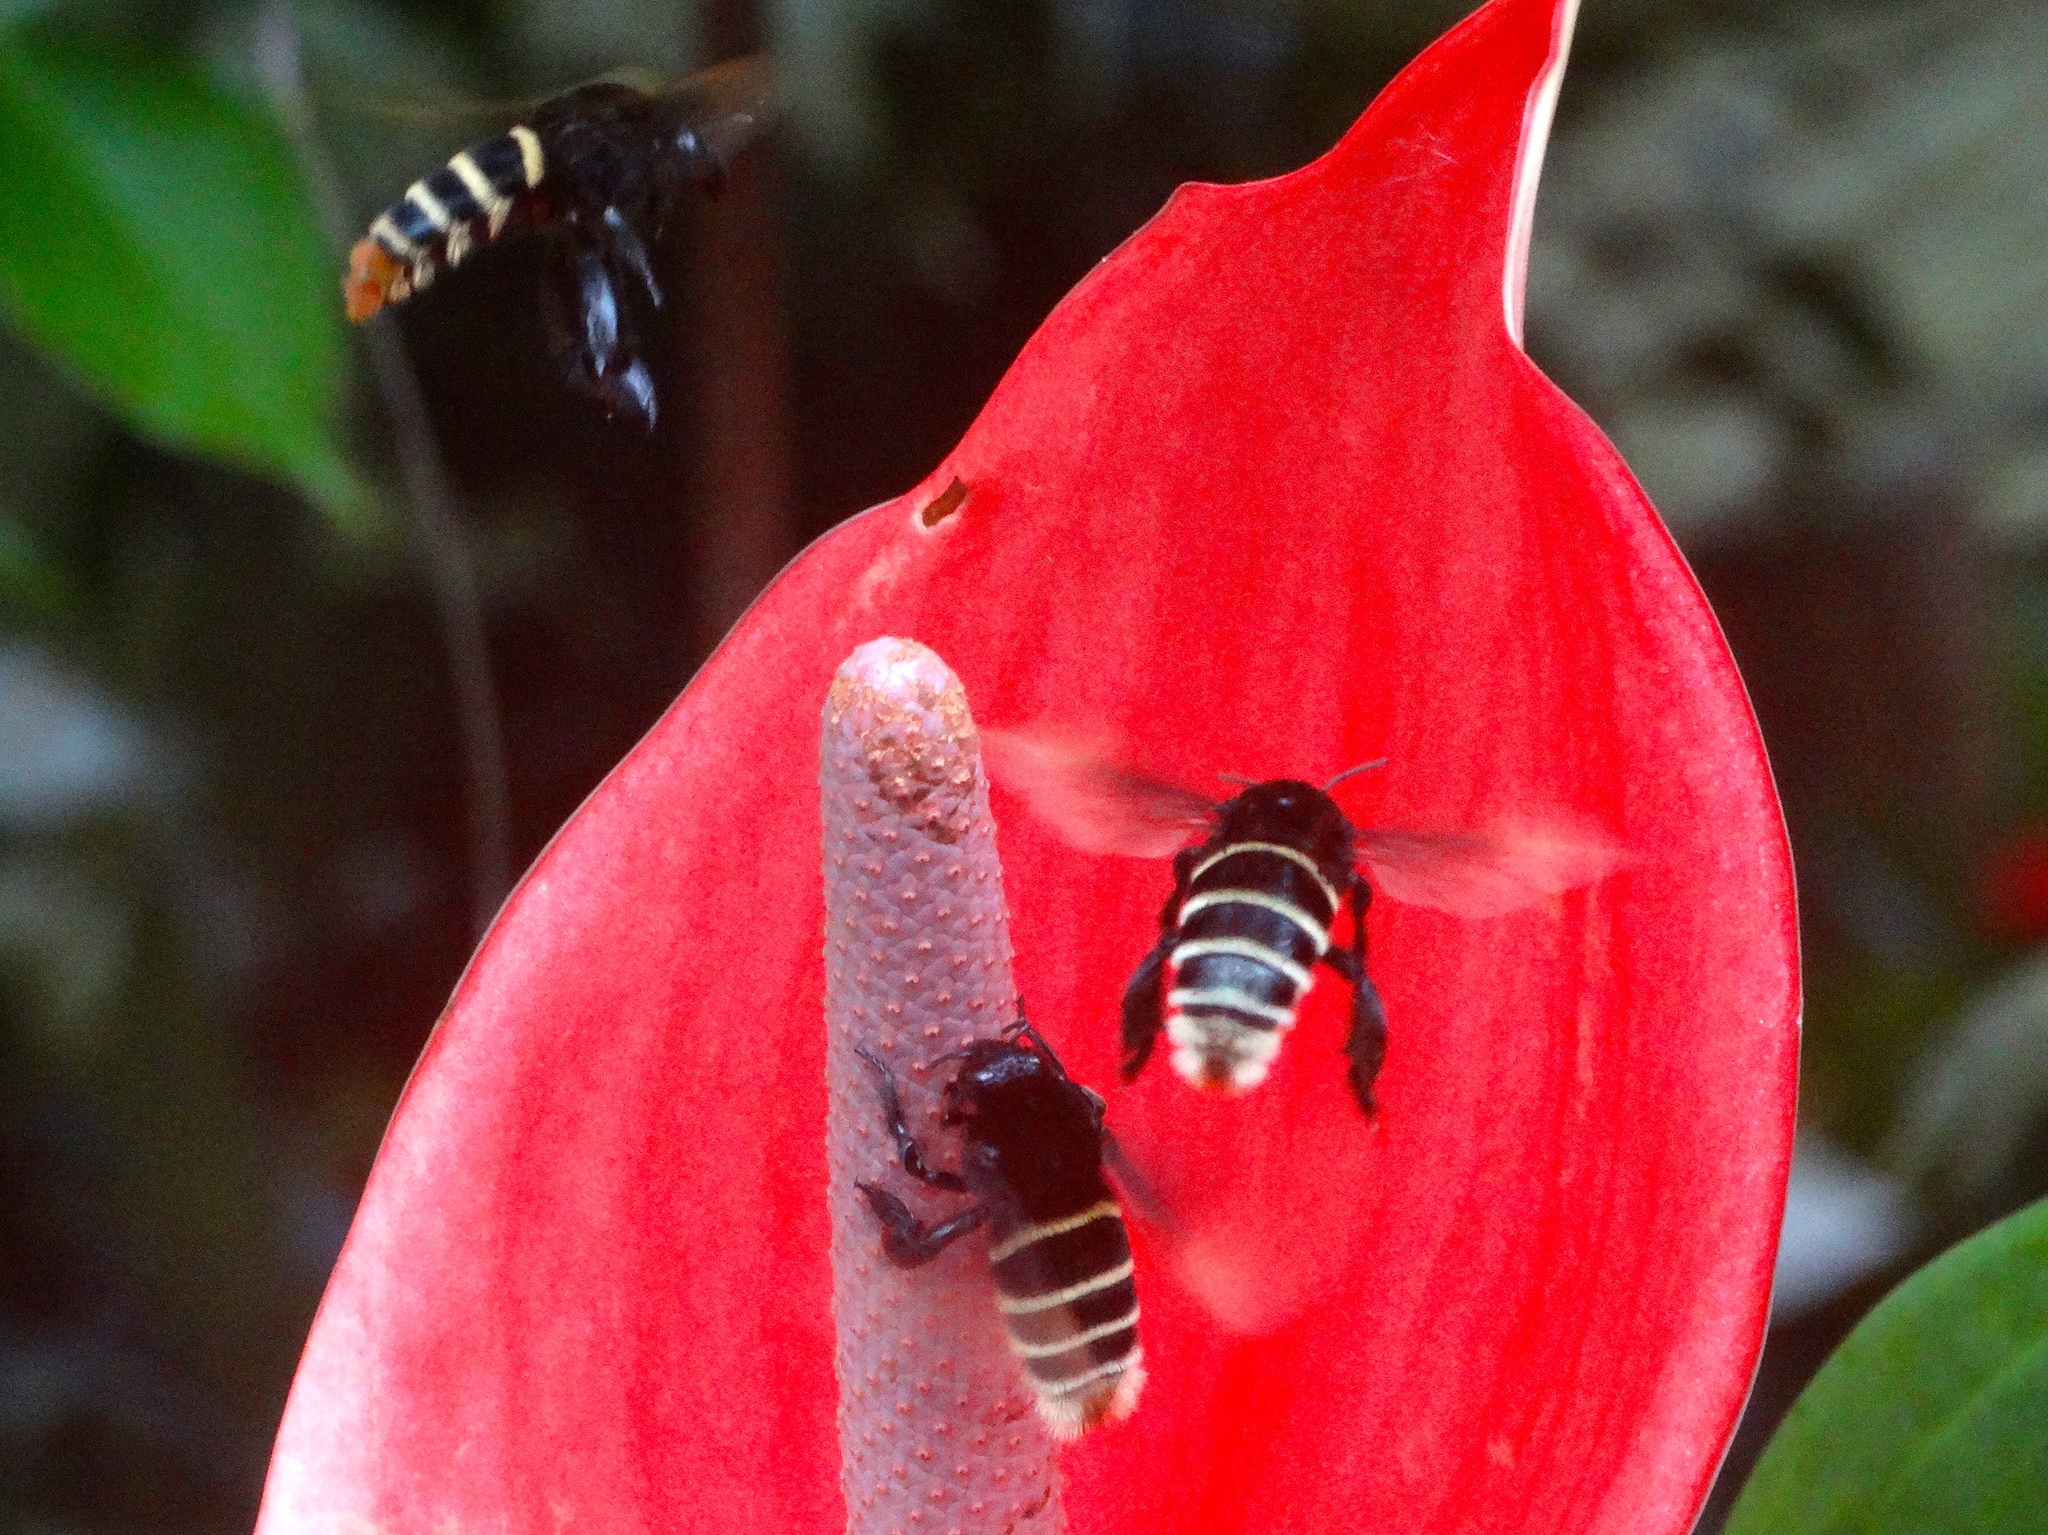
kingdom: Animalia
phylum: Arthropoda
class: Insecta
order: Hymenoptera
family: Apidae
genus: Eulaema
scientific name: Eulaema meriana
